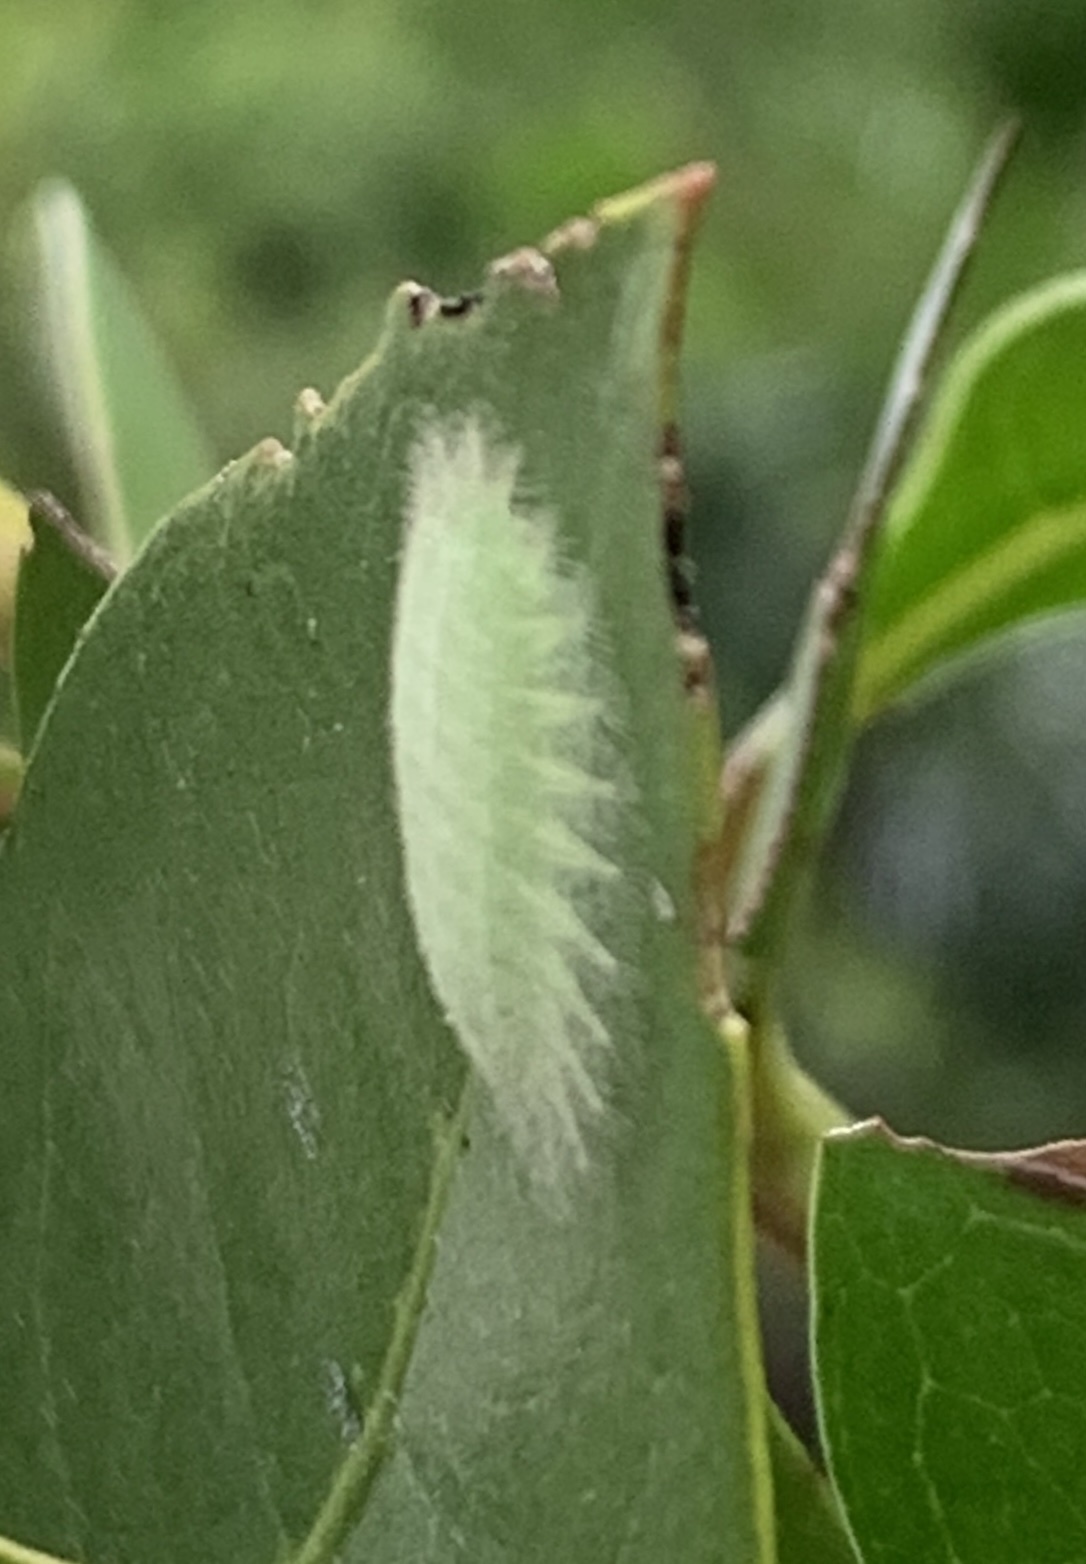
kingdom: Animalia
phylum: Arthropoda
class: Insecta
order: Lepidoptera
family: Limacodidae
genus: Alarodia
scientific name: Alarodia slossoniae
